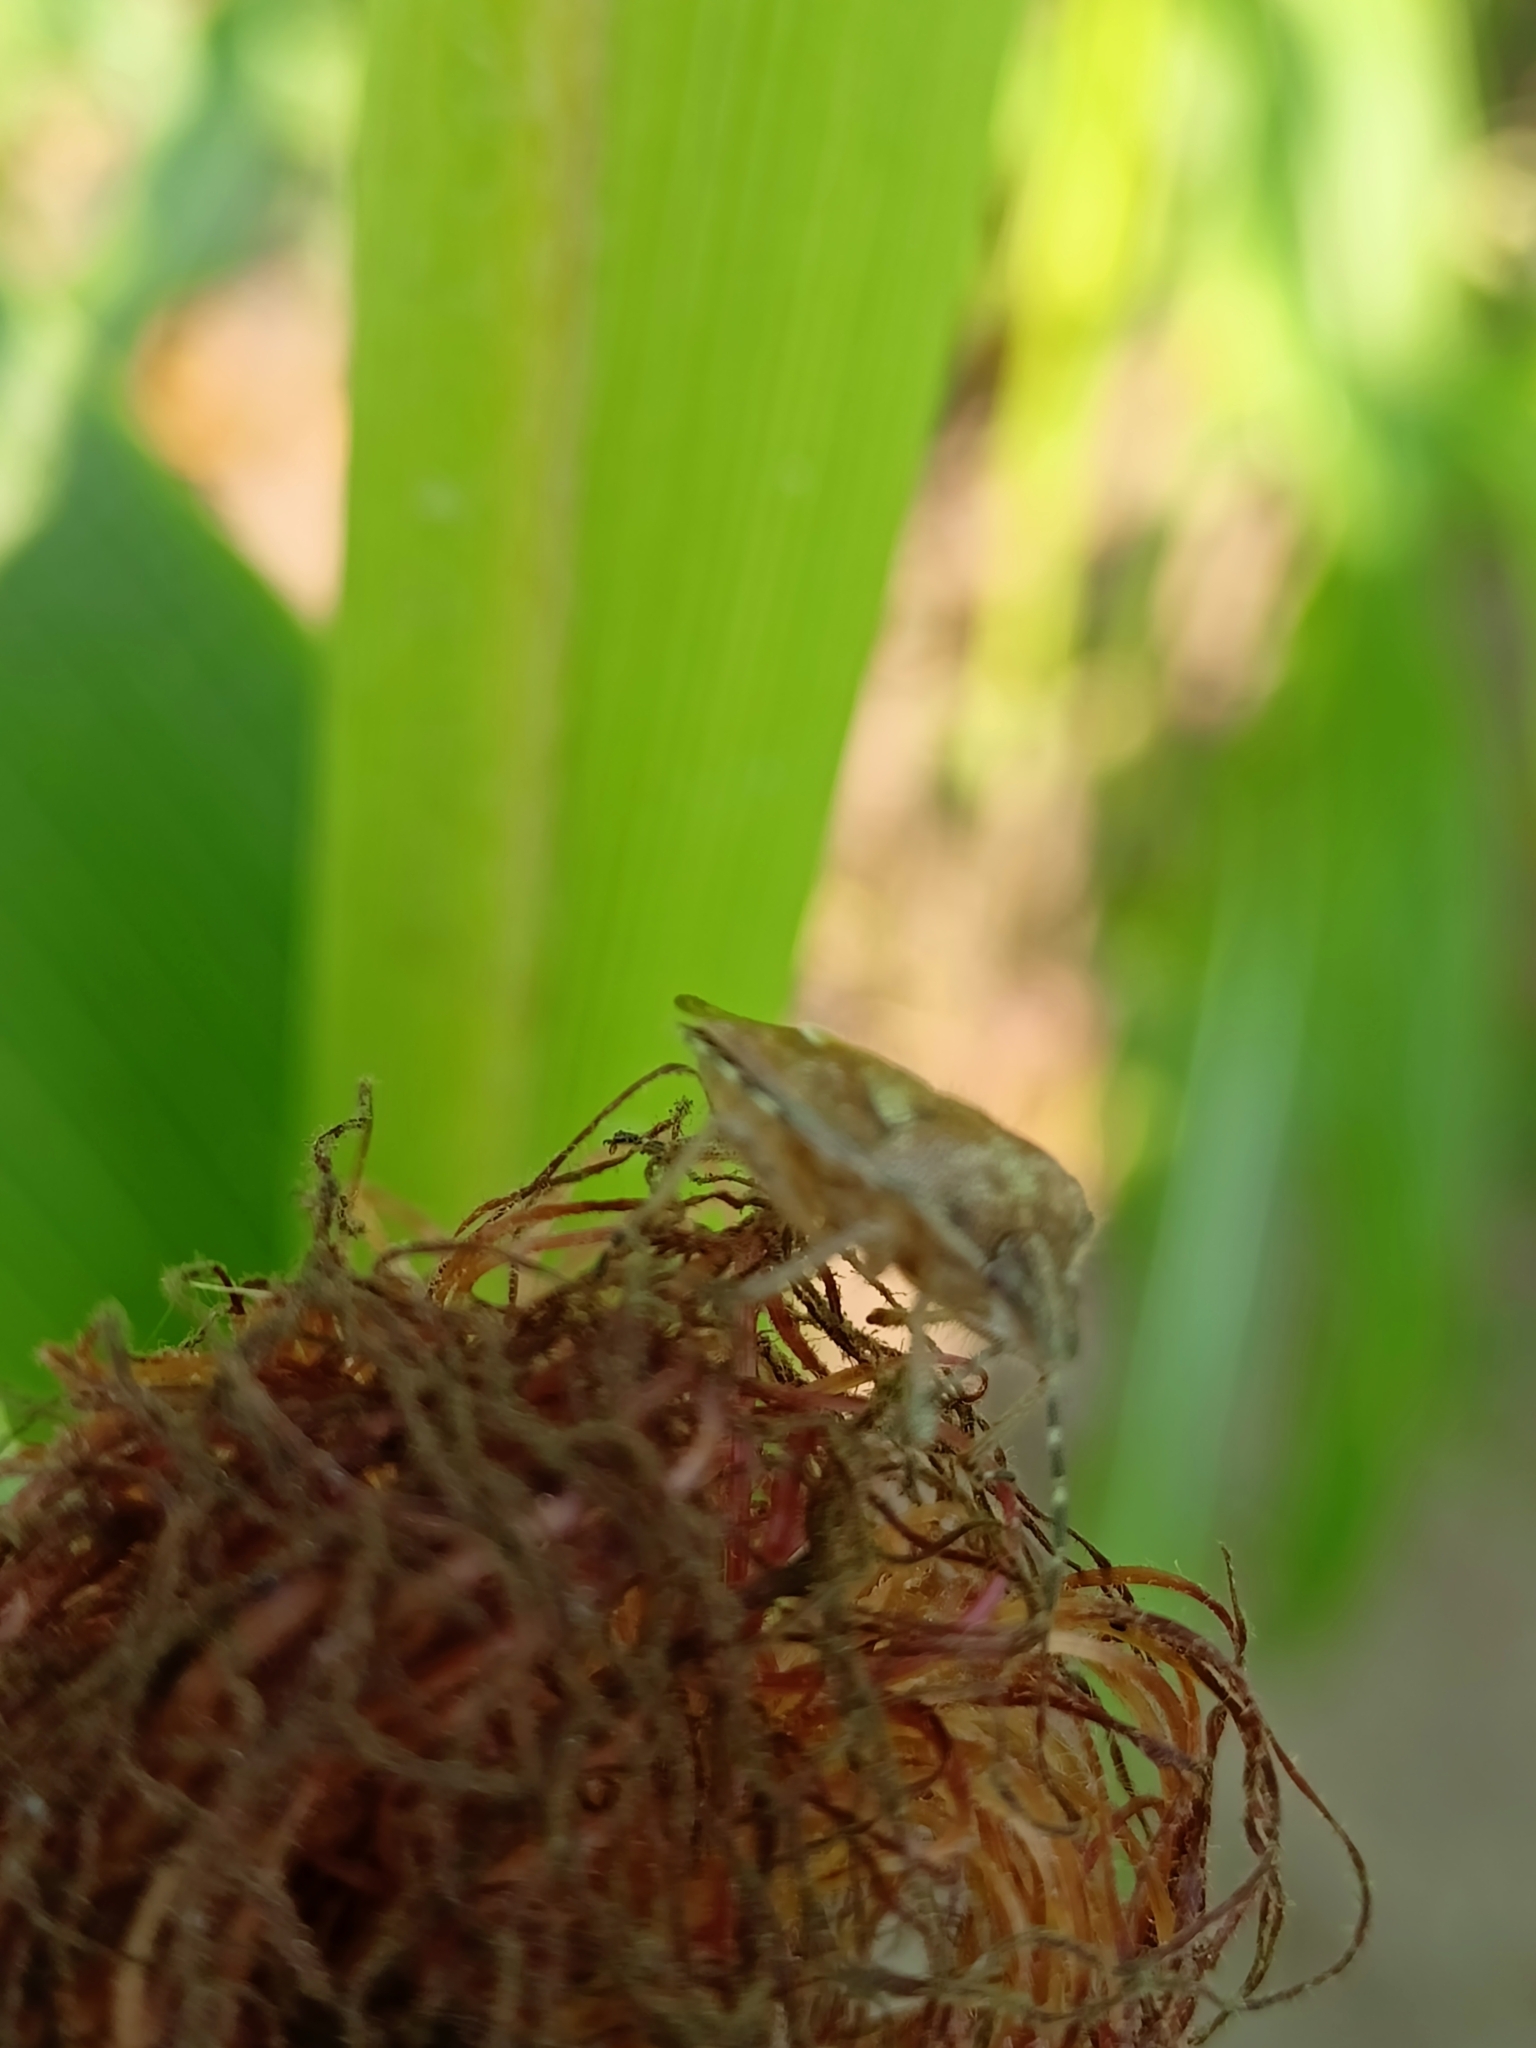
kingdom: Animalia
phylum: Arthropoda
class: Insecta
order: Hemiptera
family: Pentatomidae
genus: Dolycoris
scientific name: Dolycoris baccarum
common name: Sloe bug
